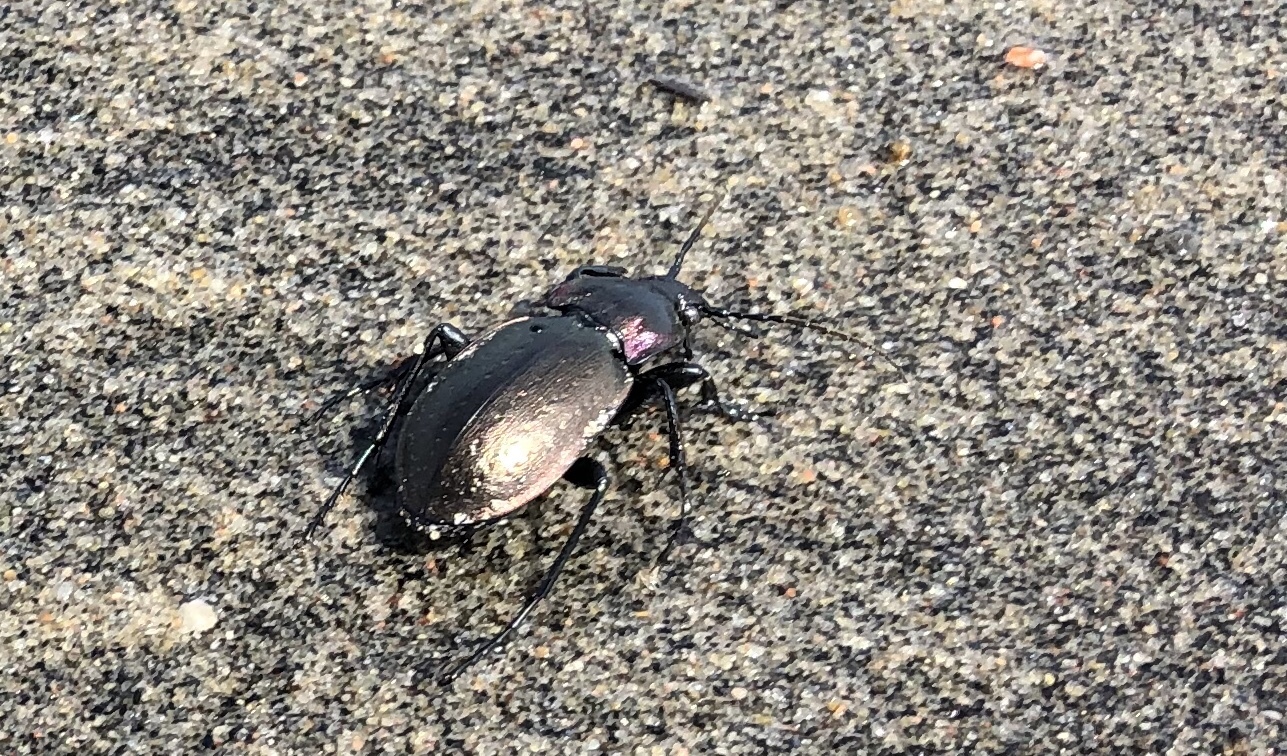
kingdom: Animalia
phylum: Arthropoda
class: Insecta
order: Coleoptera
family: Carabidae
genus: Carabus
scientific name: Carabus nemoralis
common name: European ground beetle
